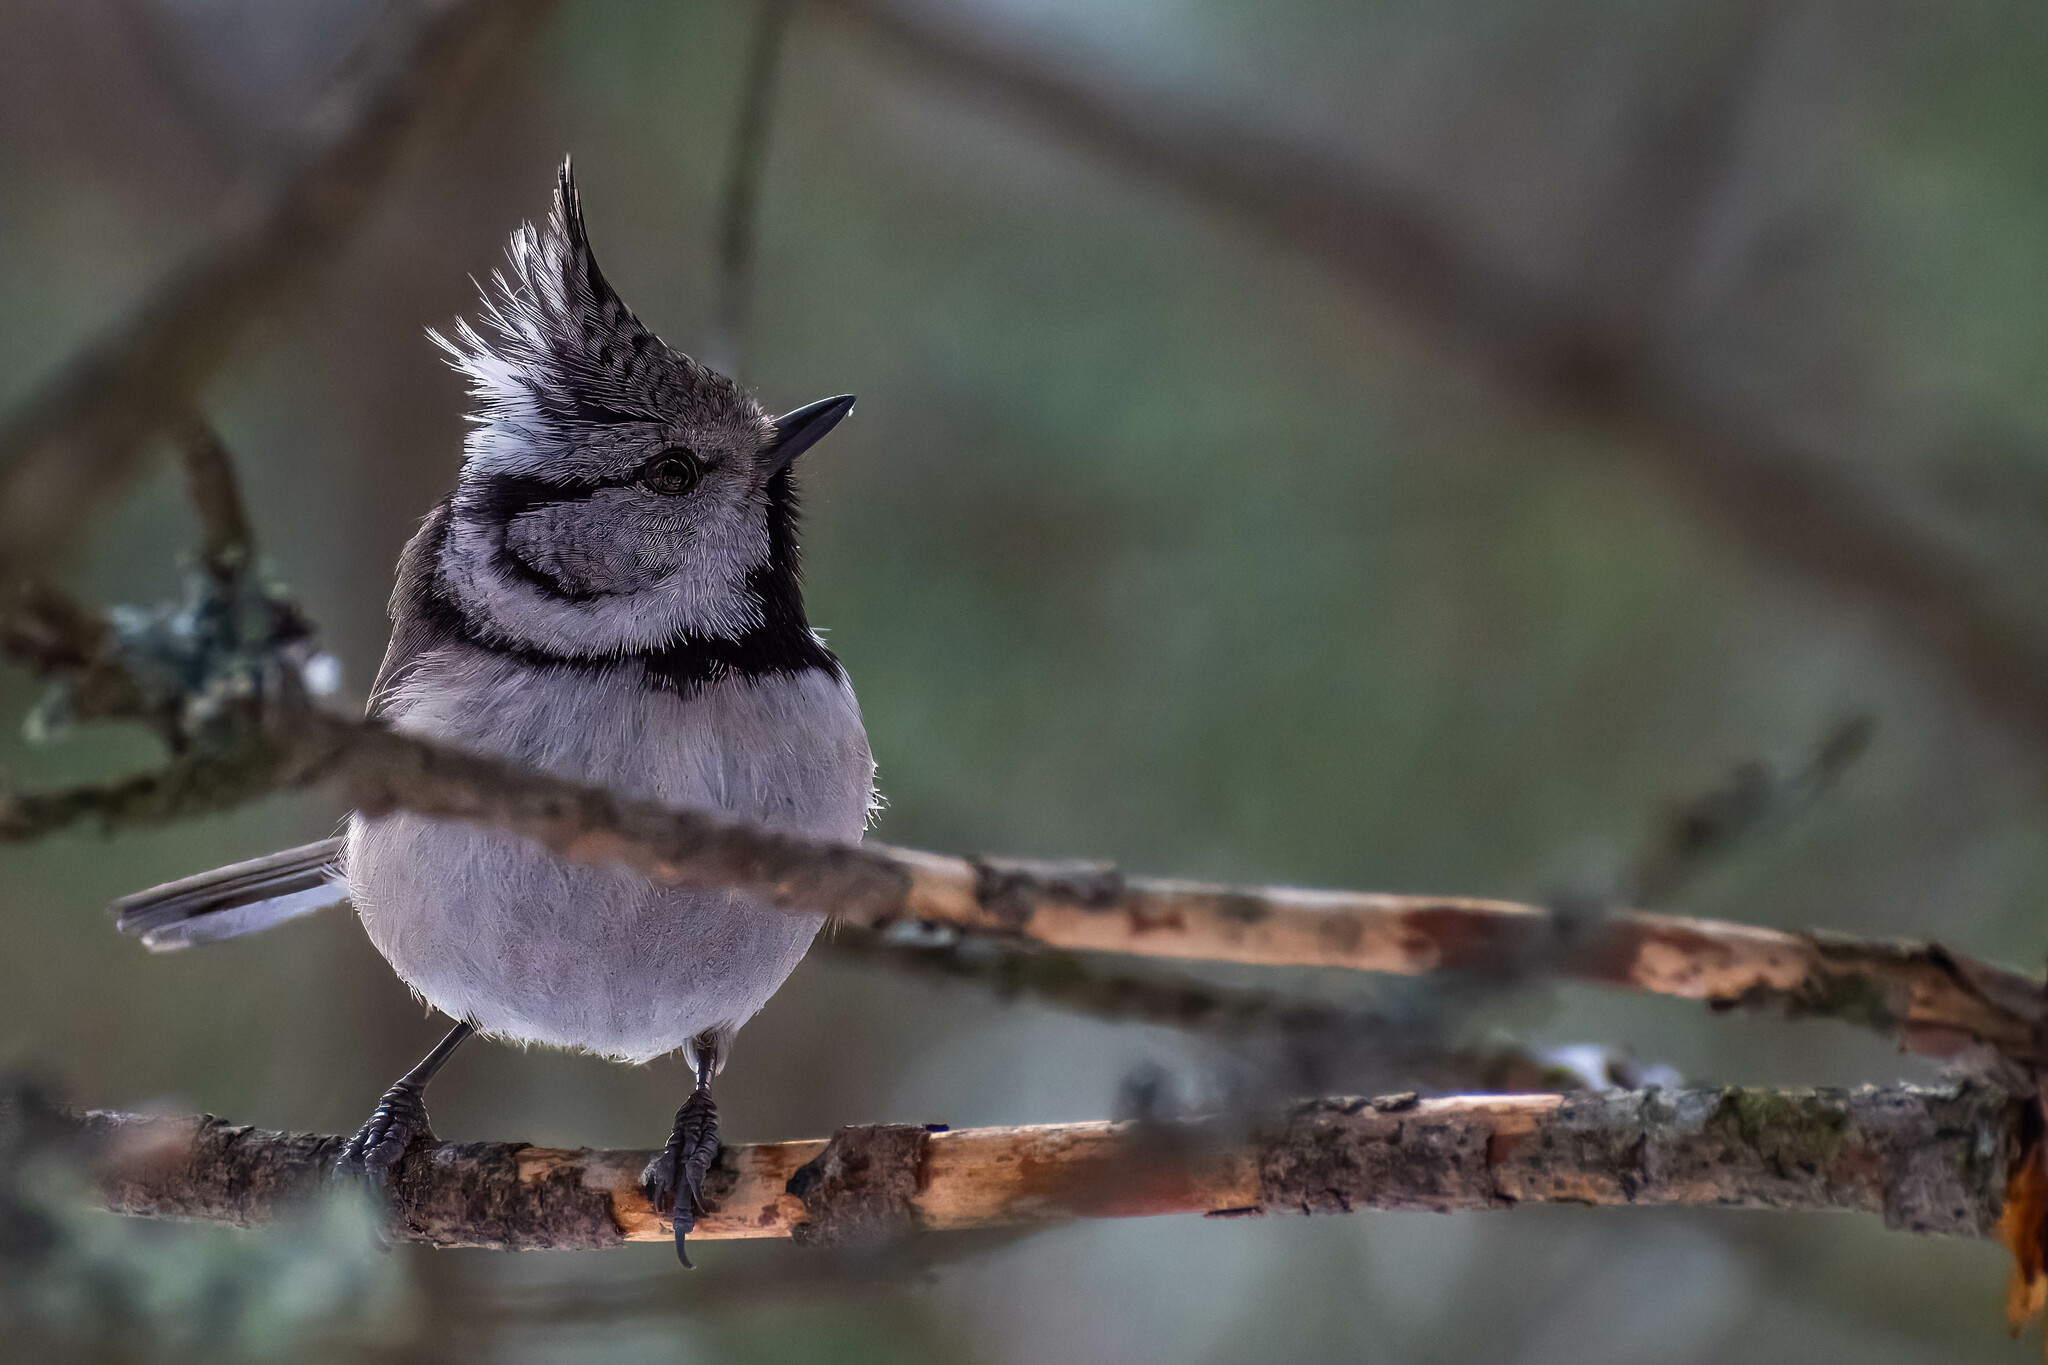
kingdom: Animalia
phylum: Chordata
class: Aves
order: Passeriformes
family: Paridae
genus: Lophophanes
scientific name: Lophophanes cristatus
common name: European crested tit
